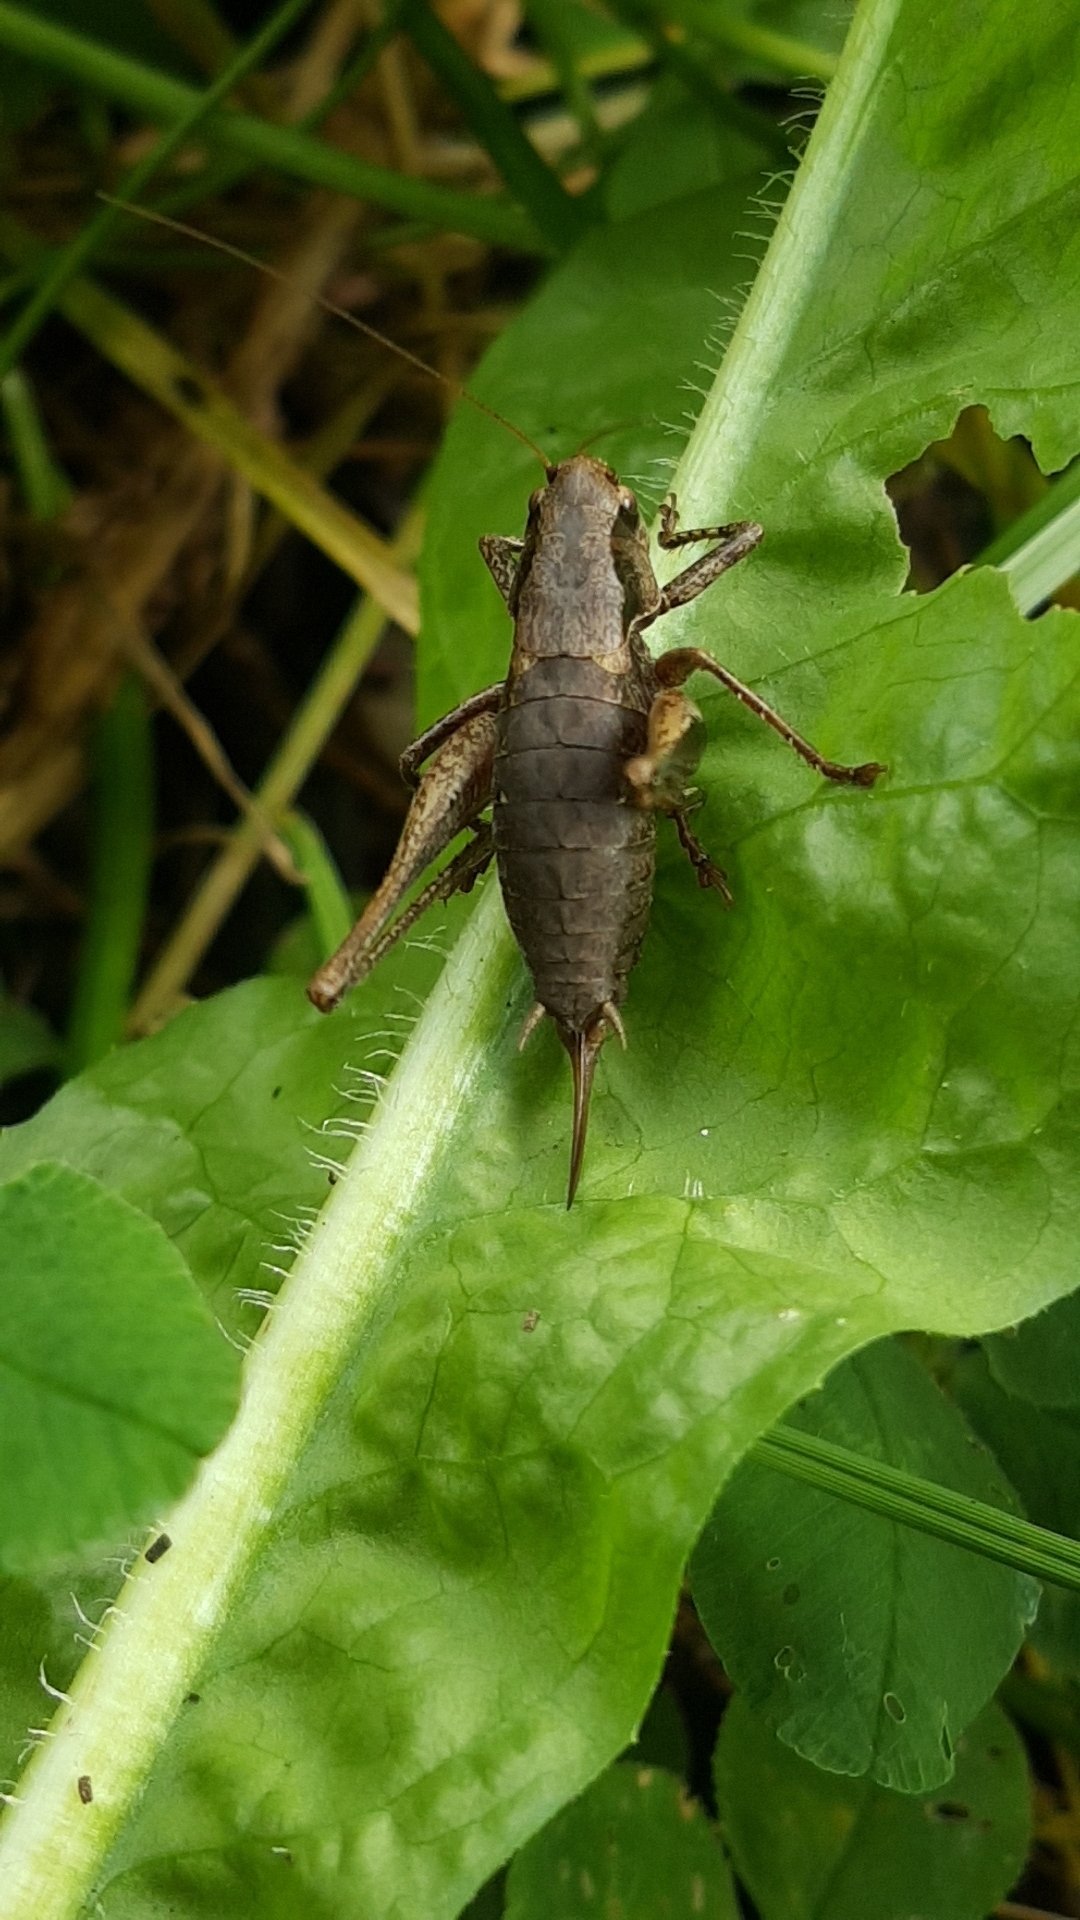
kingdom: Animalia
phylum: Arthropoda
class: Insecta
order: Orthoptera
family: Tettigoniidae
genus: Pholidoptera
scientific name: Pholidoptera griseoaptera
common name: Dark bush-cricket
